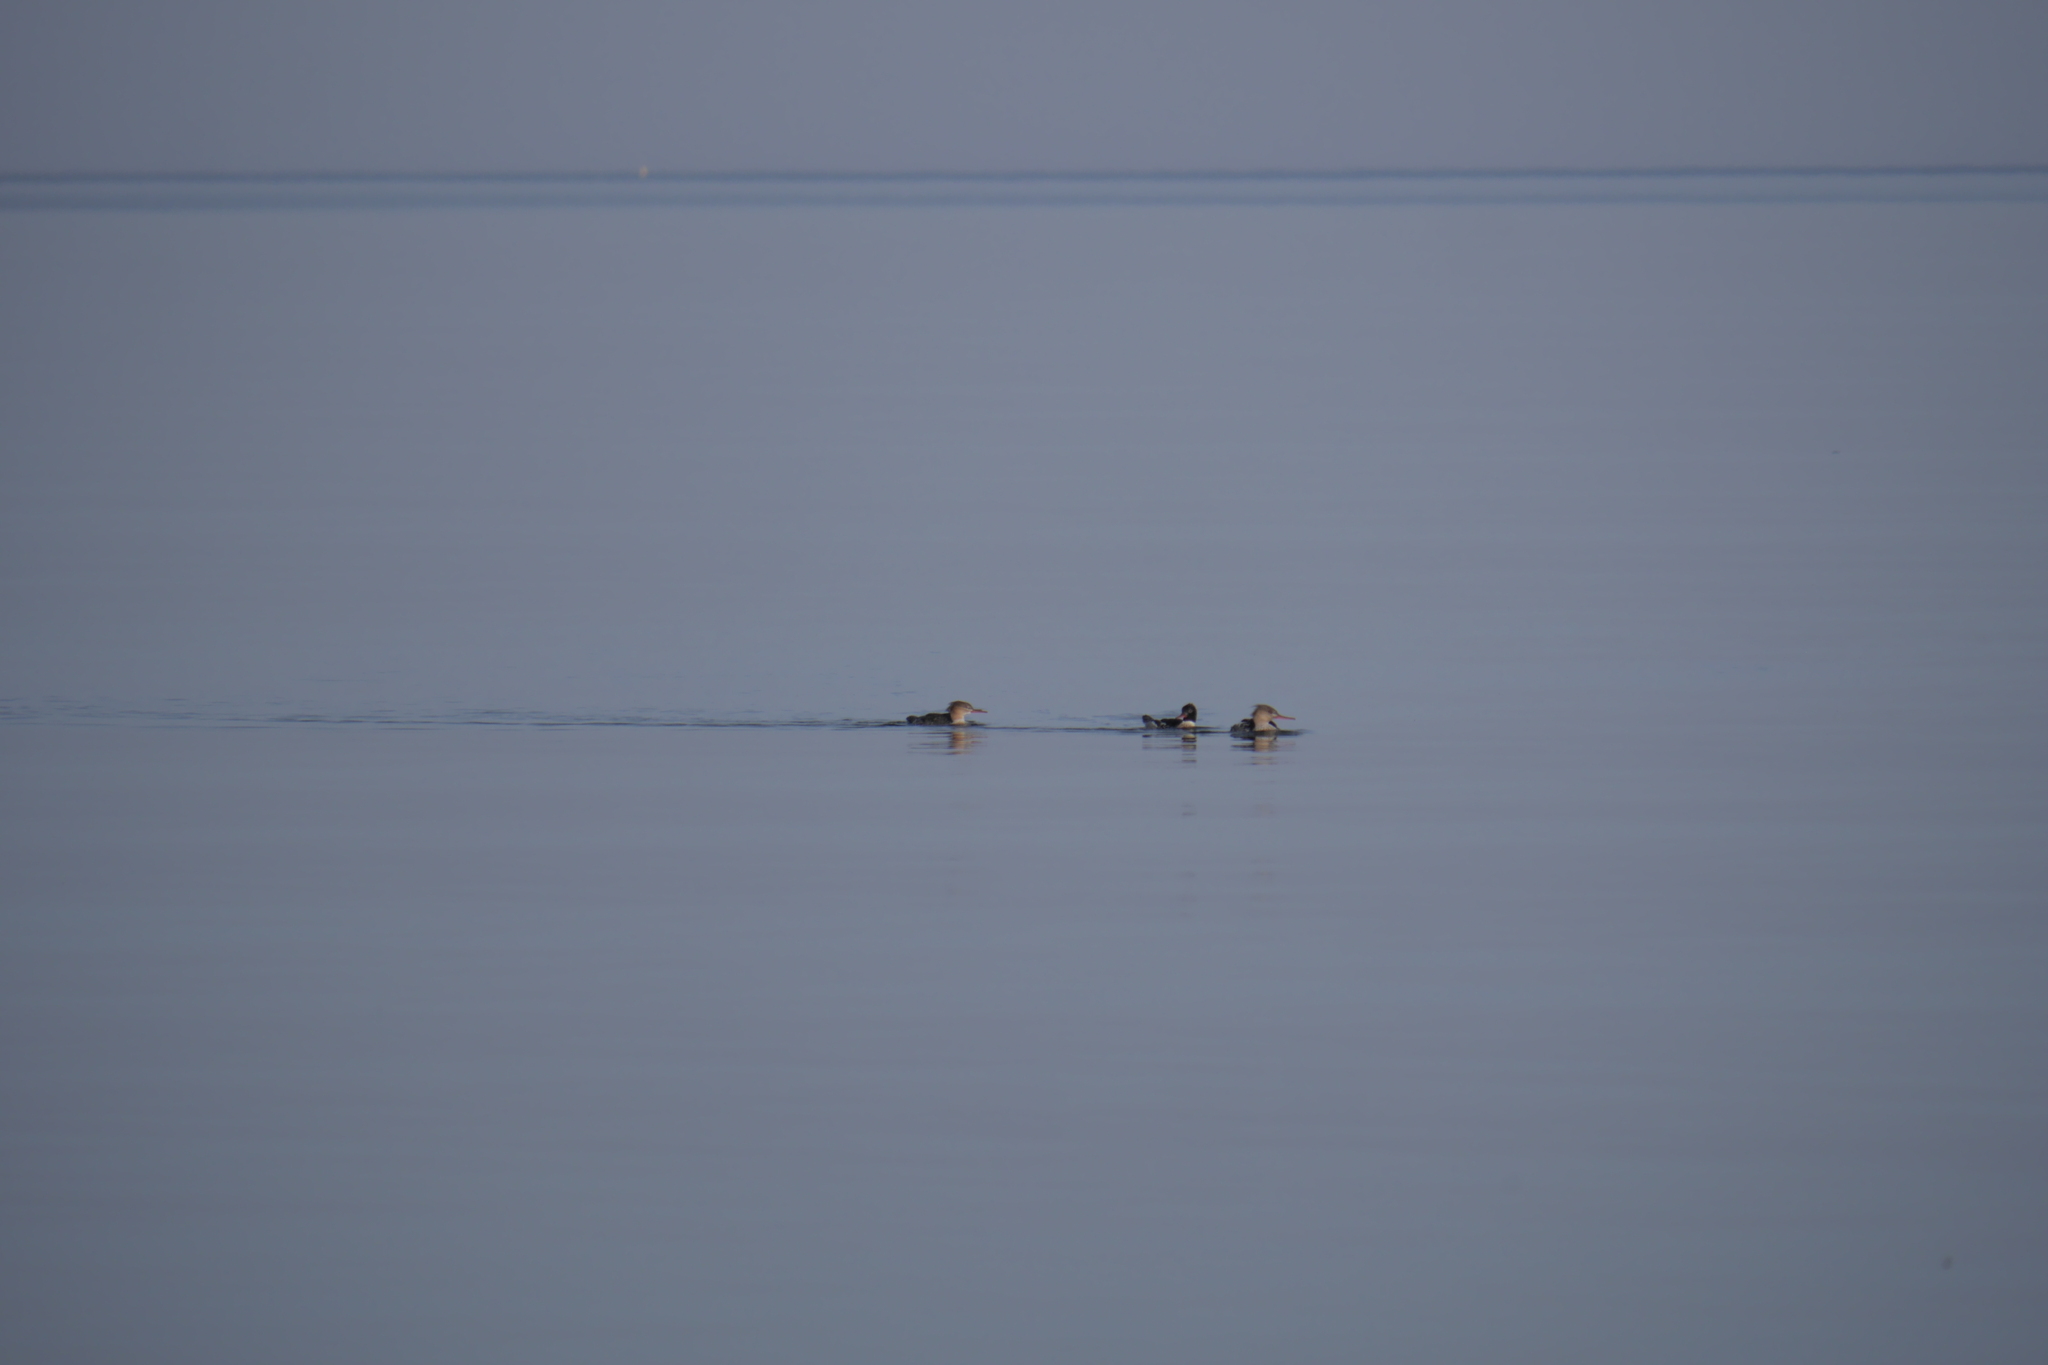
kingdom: Animalia
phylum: Chordata
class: Aves
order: Anseriformes
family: Anatidae
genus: Mergus
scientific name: Mergus serrator
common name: Red-breasted merganser
